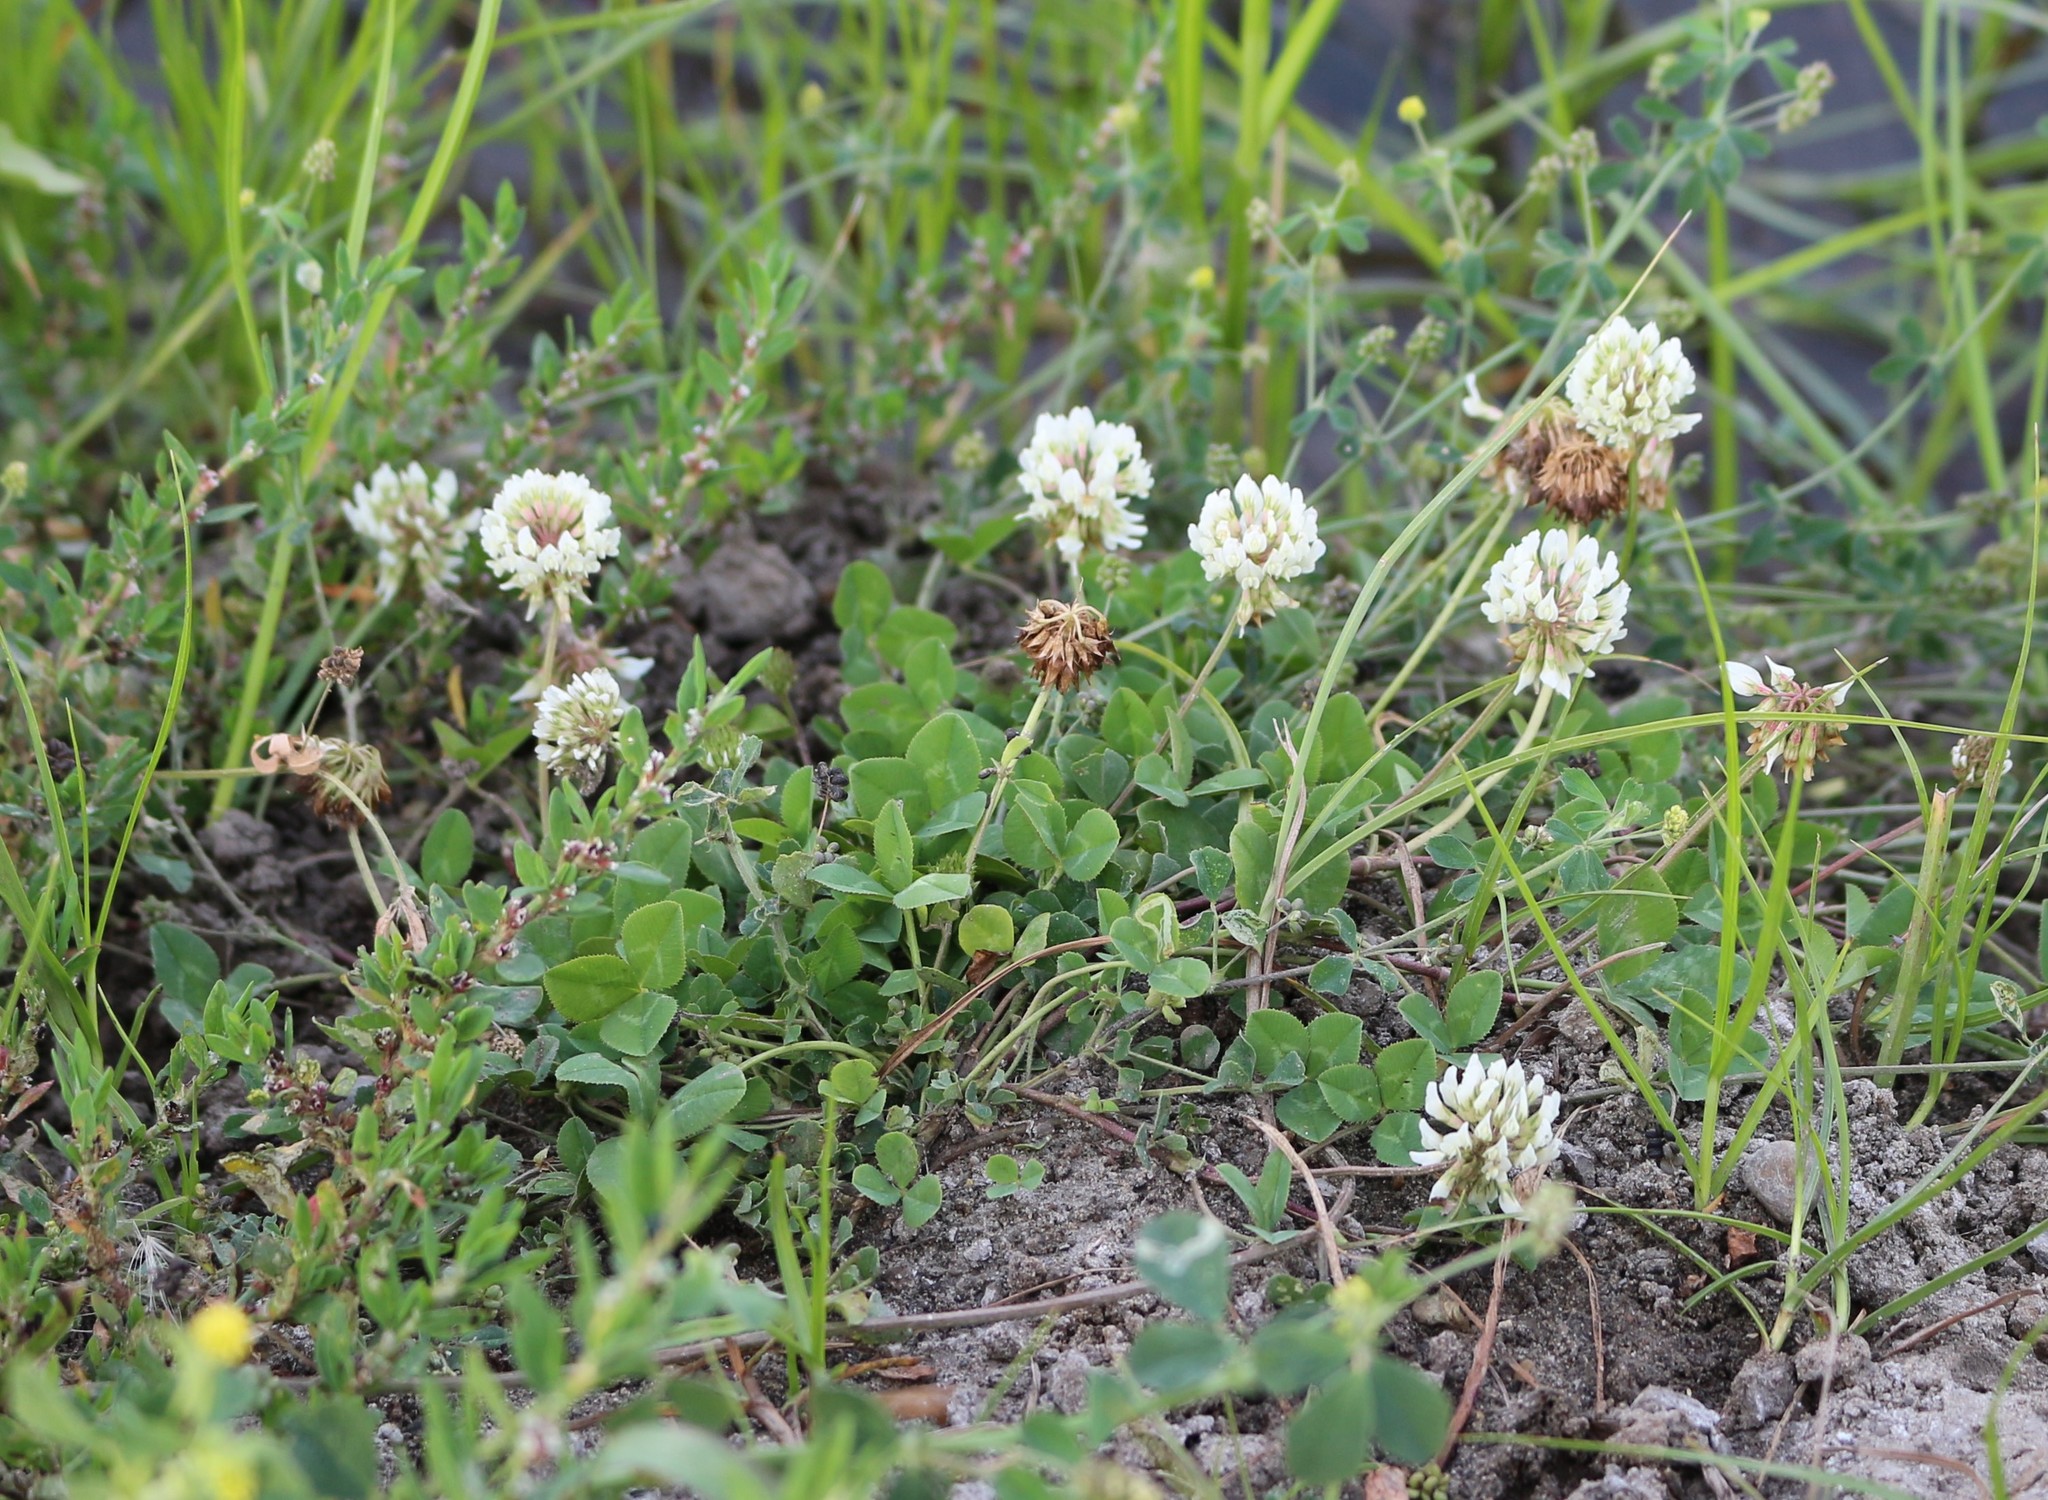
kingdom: Plantae
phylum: Tracheophyta
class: Magnoliopsida
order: Fabales
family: Fabaceae
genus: Trifolium
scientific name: Trifolium repens
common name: White clover
